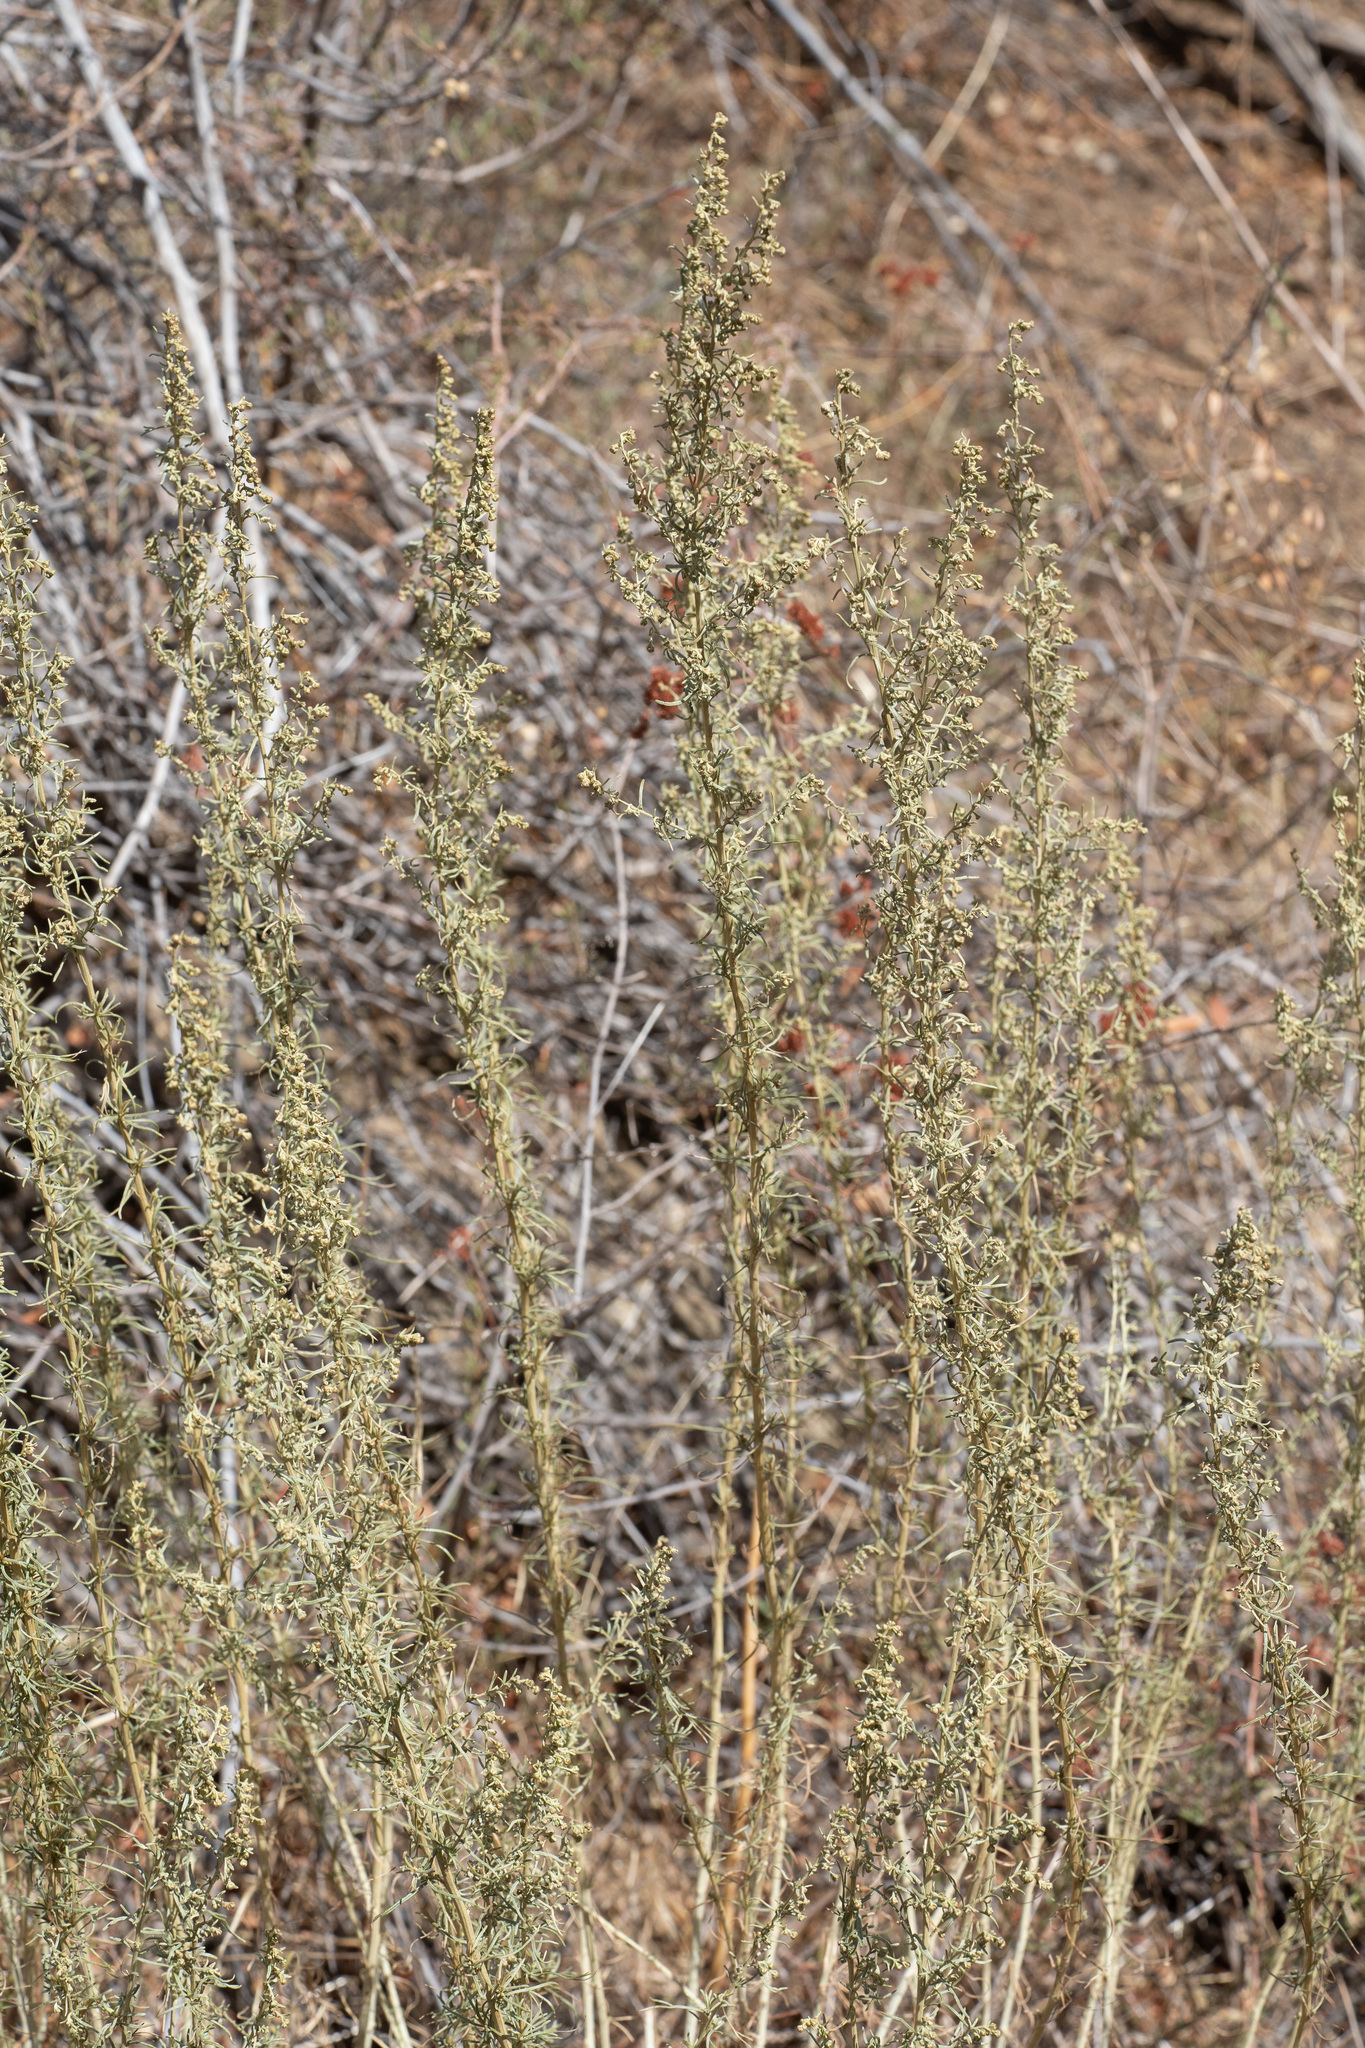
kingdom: Plantae
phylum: Tracheophyta
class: Magnoliopsida
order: Asterales
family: Asteraceae
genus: Artemisia
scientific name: Artemisia californica
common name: California sagebrush
